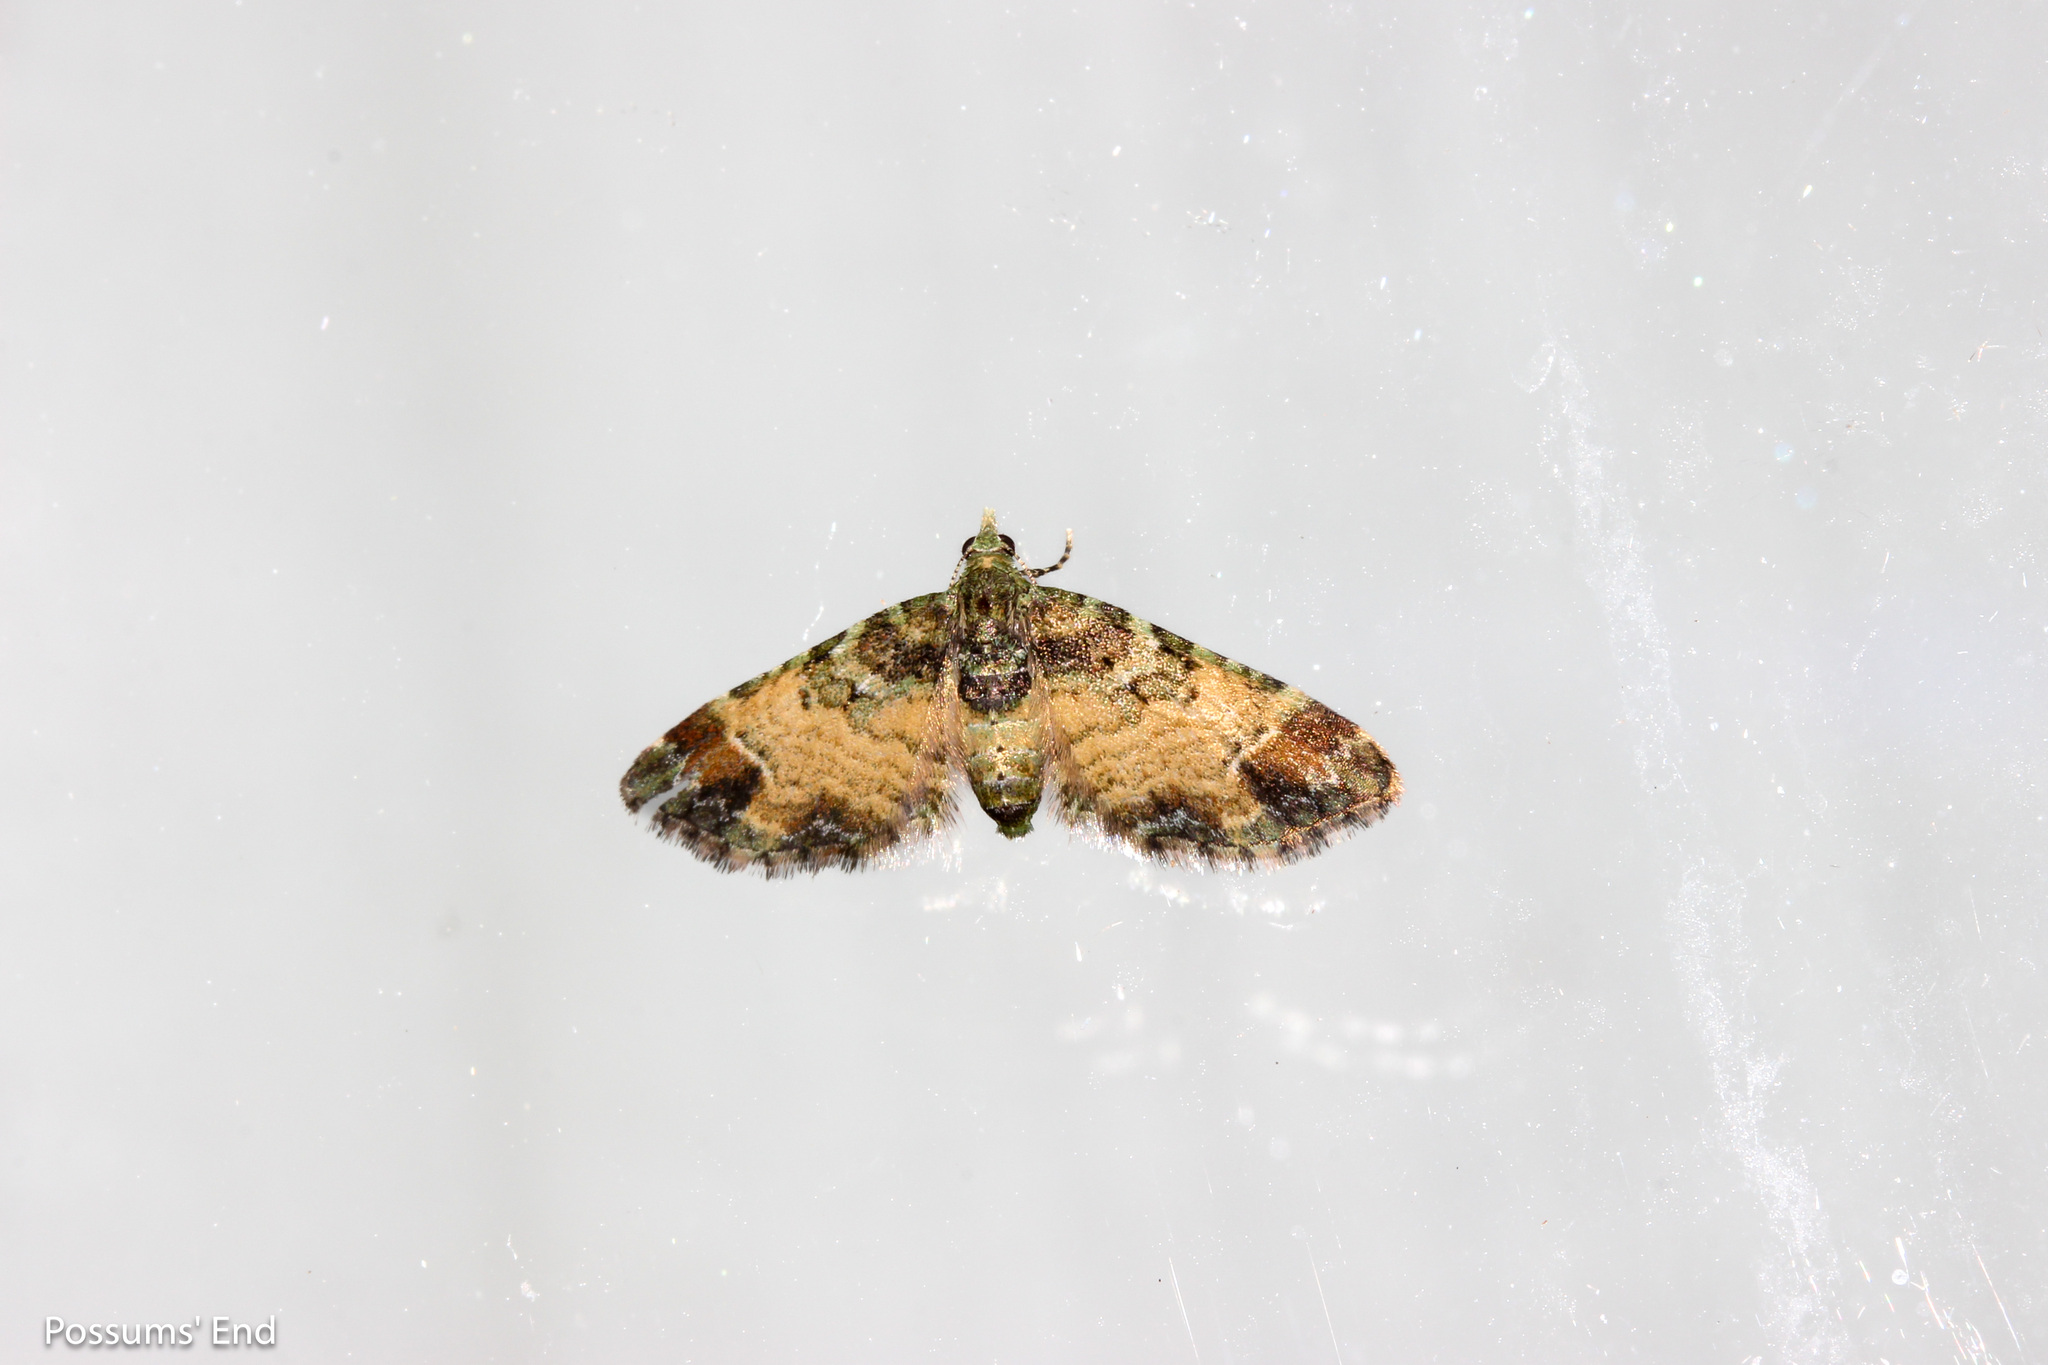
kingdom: Animalia
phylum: Arthropoda
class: Insecta
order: Lepidoptera
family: Geometridae
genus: Pasiphila
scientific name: Pasiphila sandycias
